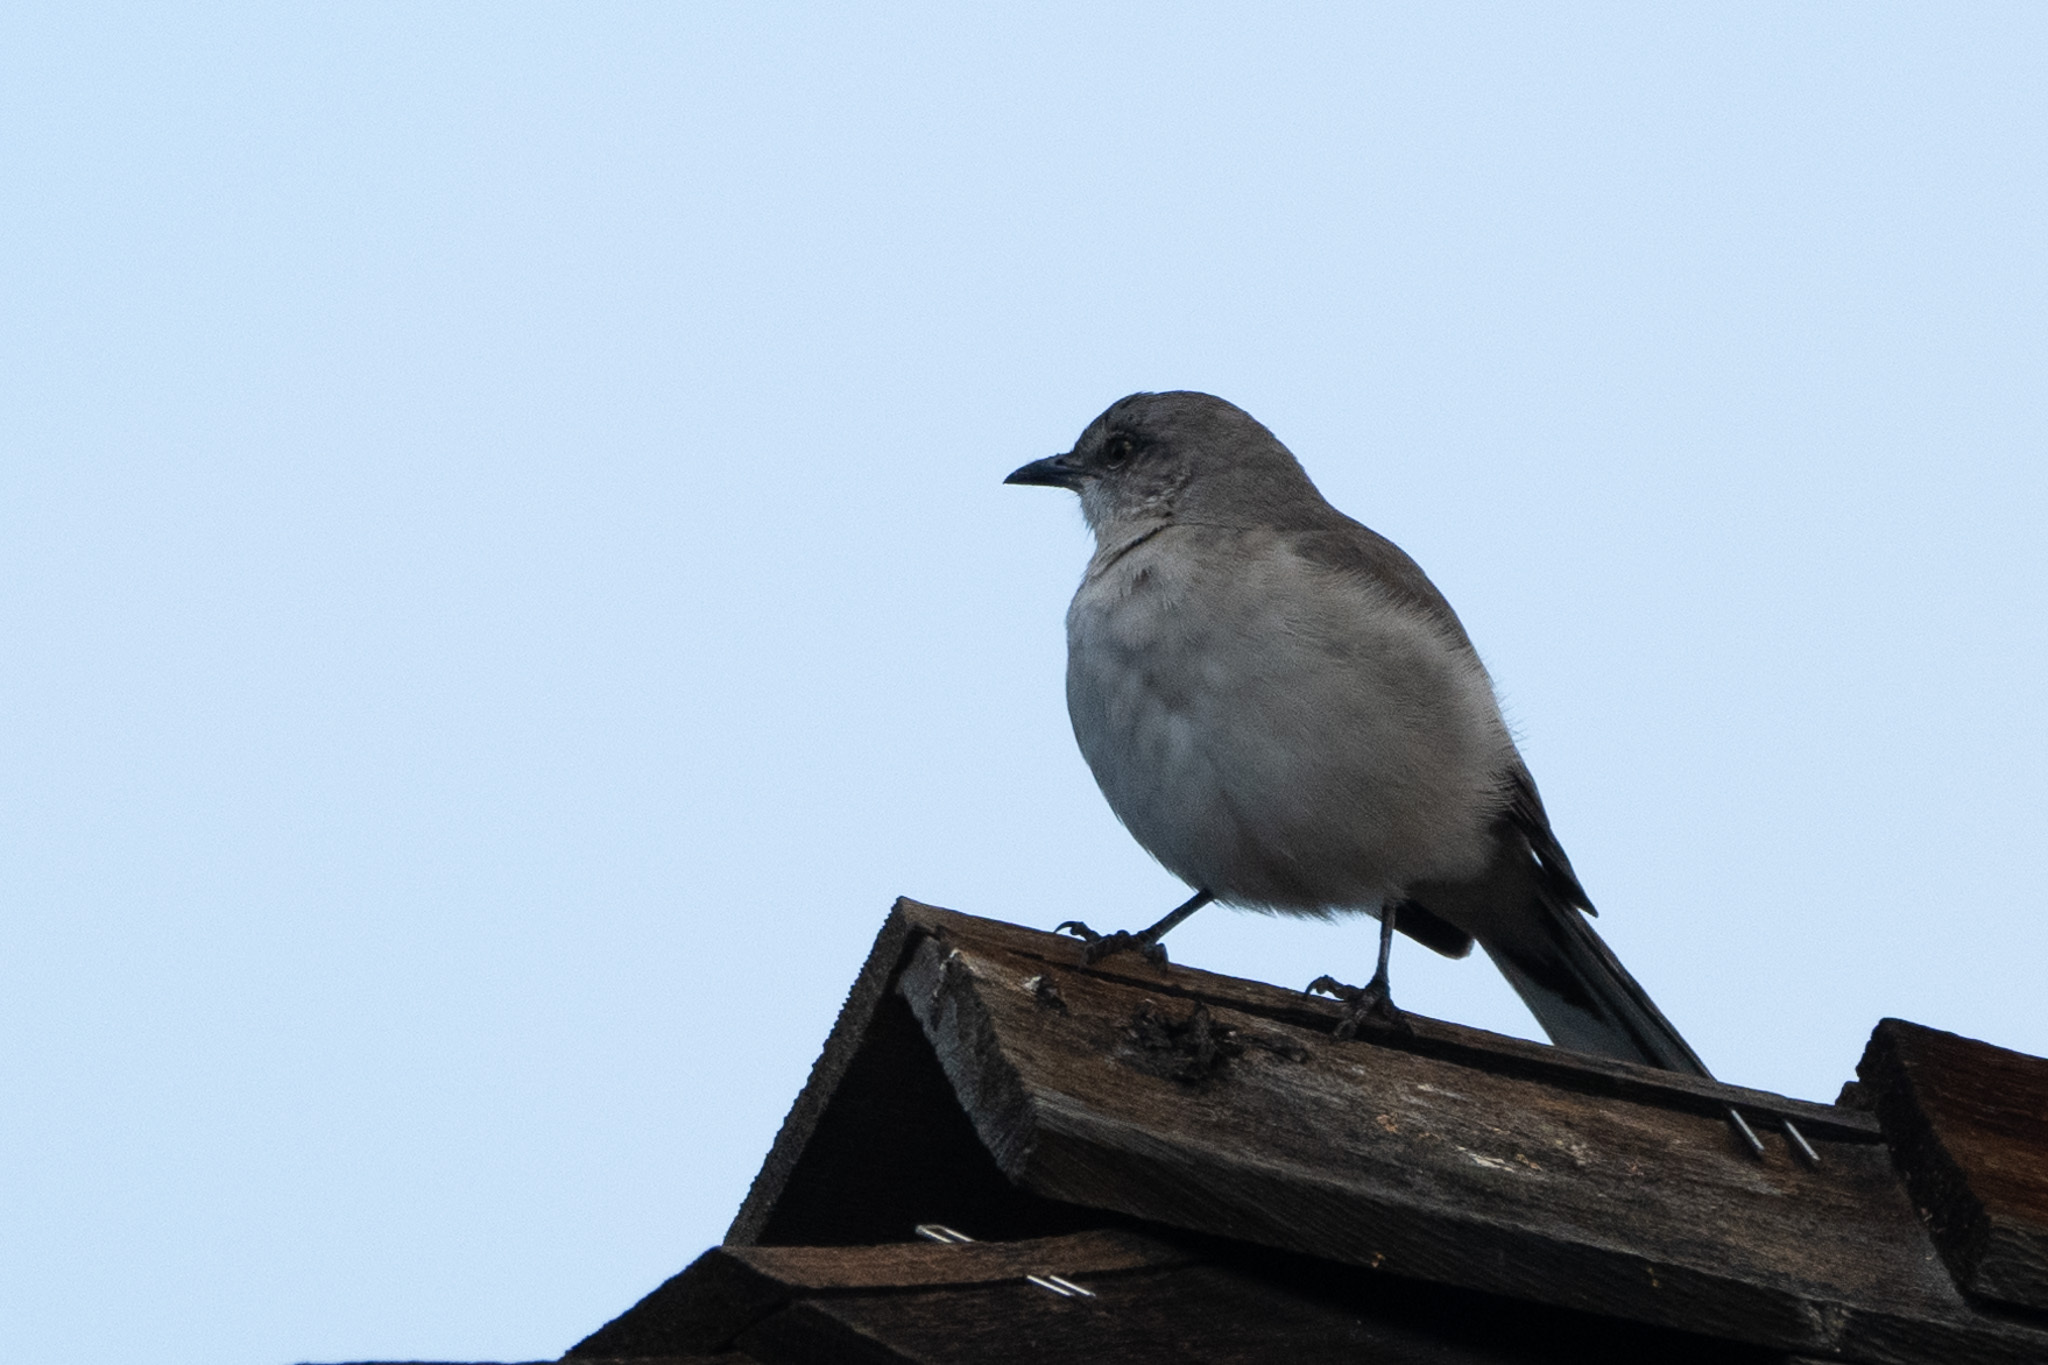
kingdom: Animalia
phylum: Chordata
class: Aves
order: Passeriformes
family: Mimidae
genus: Mimus
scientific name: Mimus polyglottos
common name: Northern mockingbird
